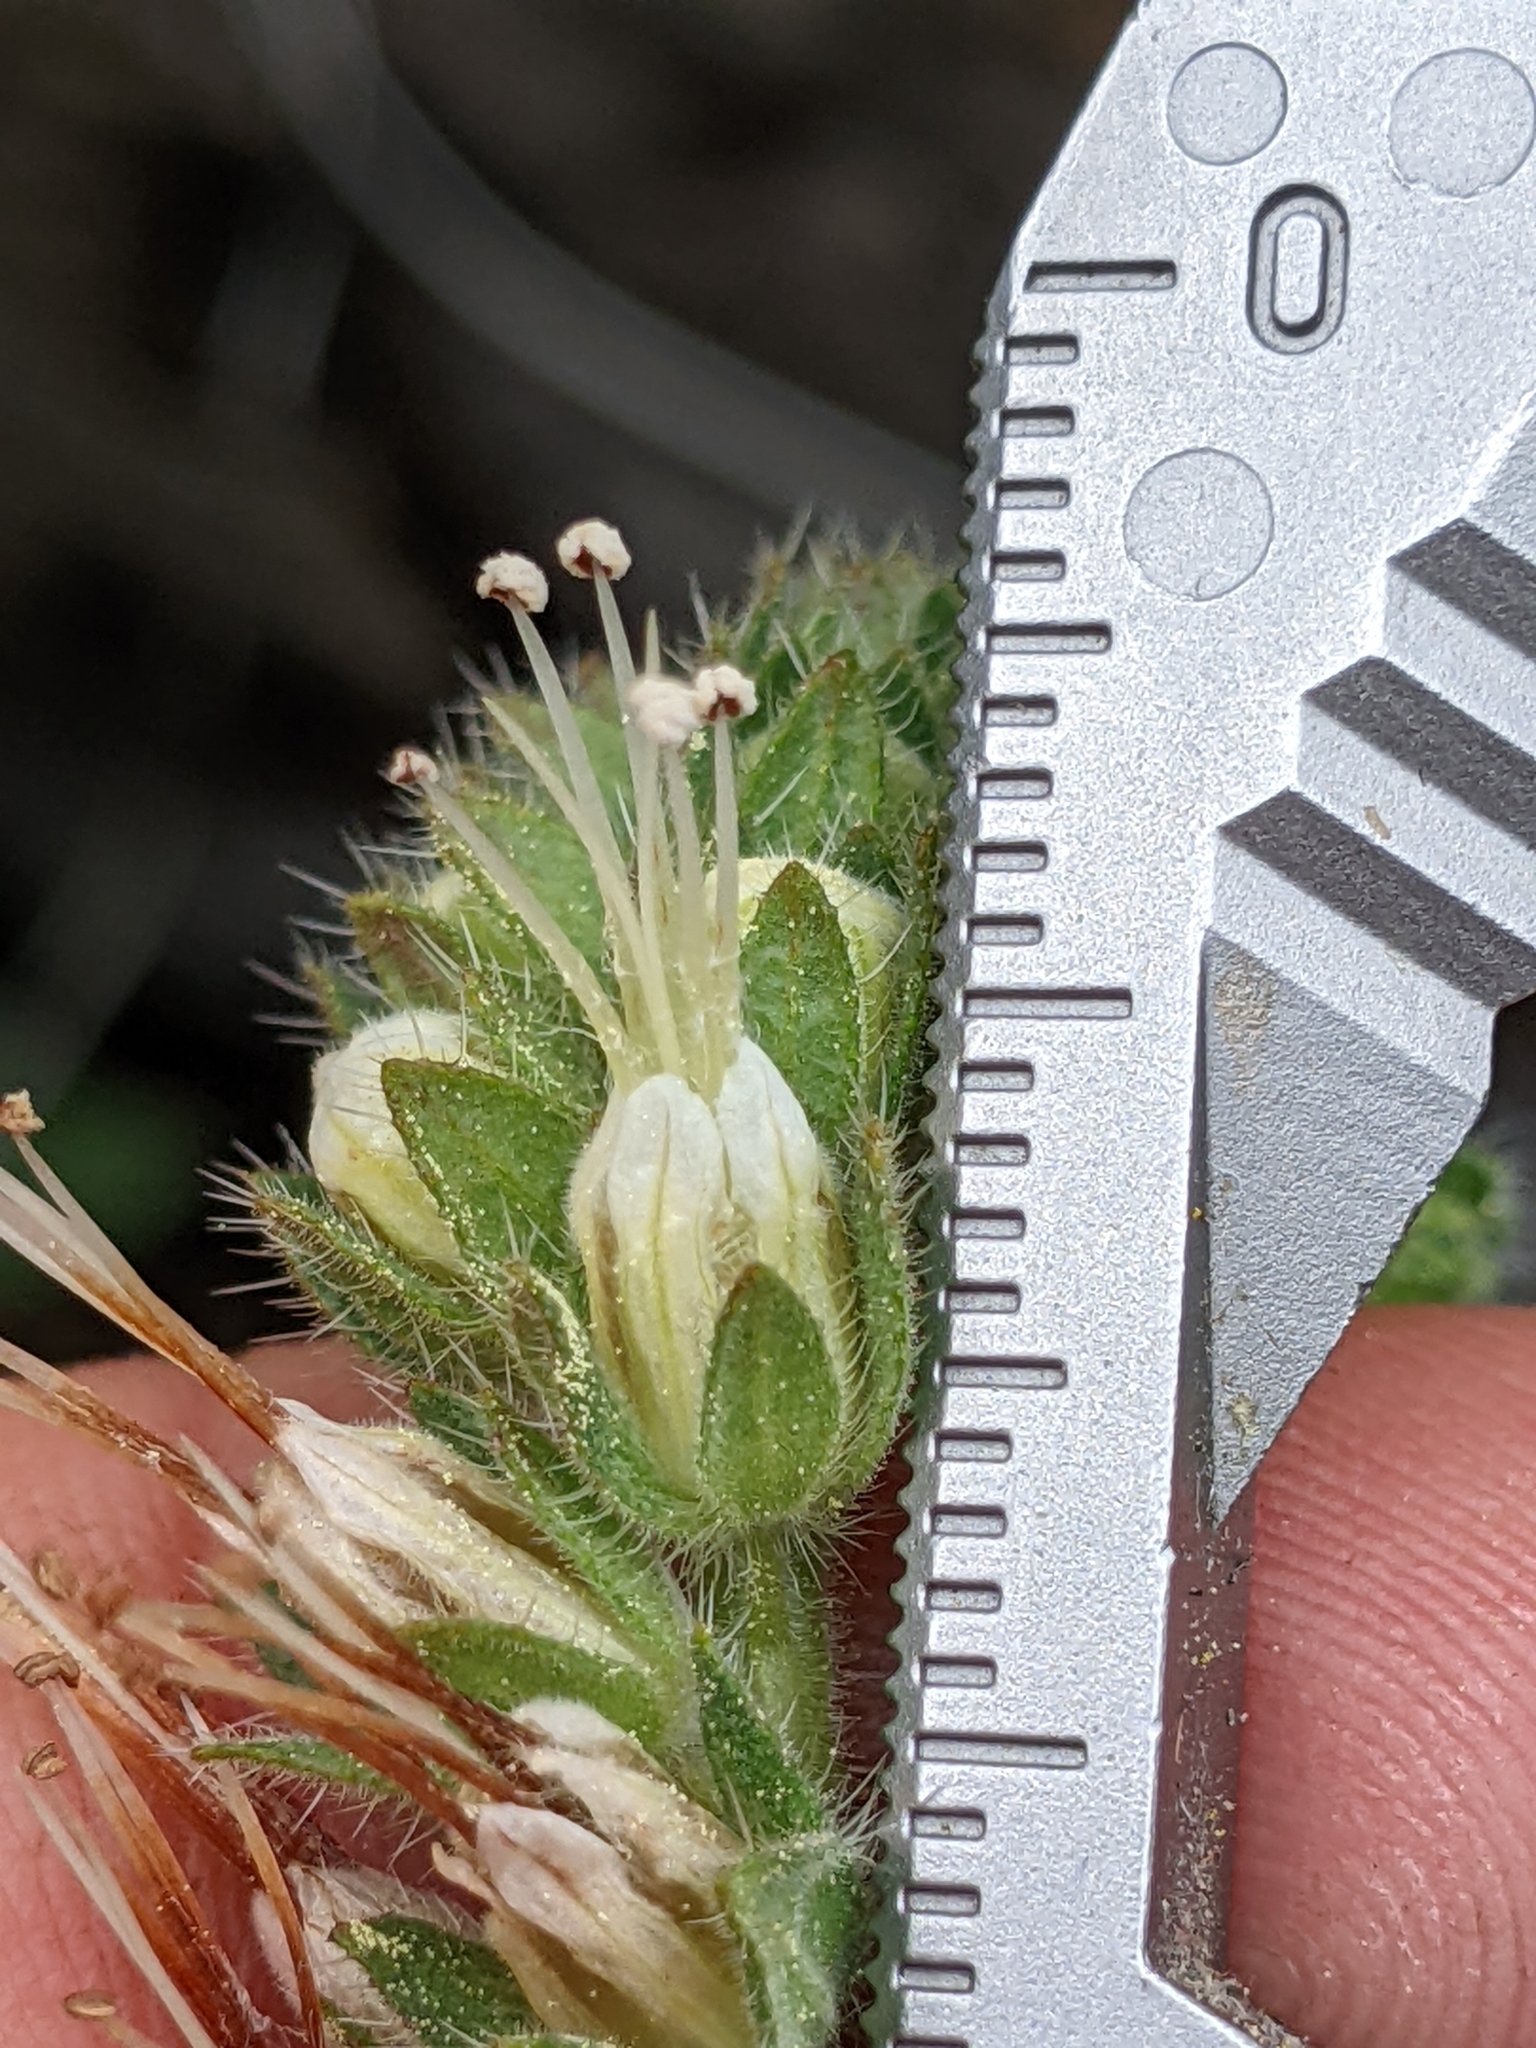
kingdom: Plantae
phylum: Tracheophyta
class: Magnoliopsida
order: Boraginales
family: Hydrophyllaceae
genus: Phacelia
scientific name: Phacelia imbricata
